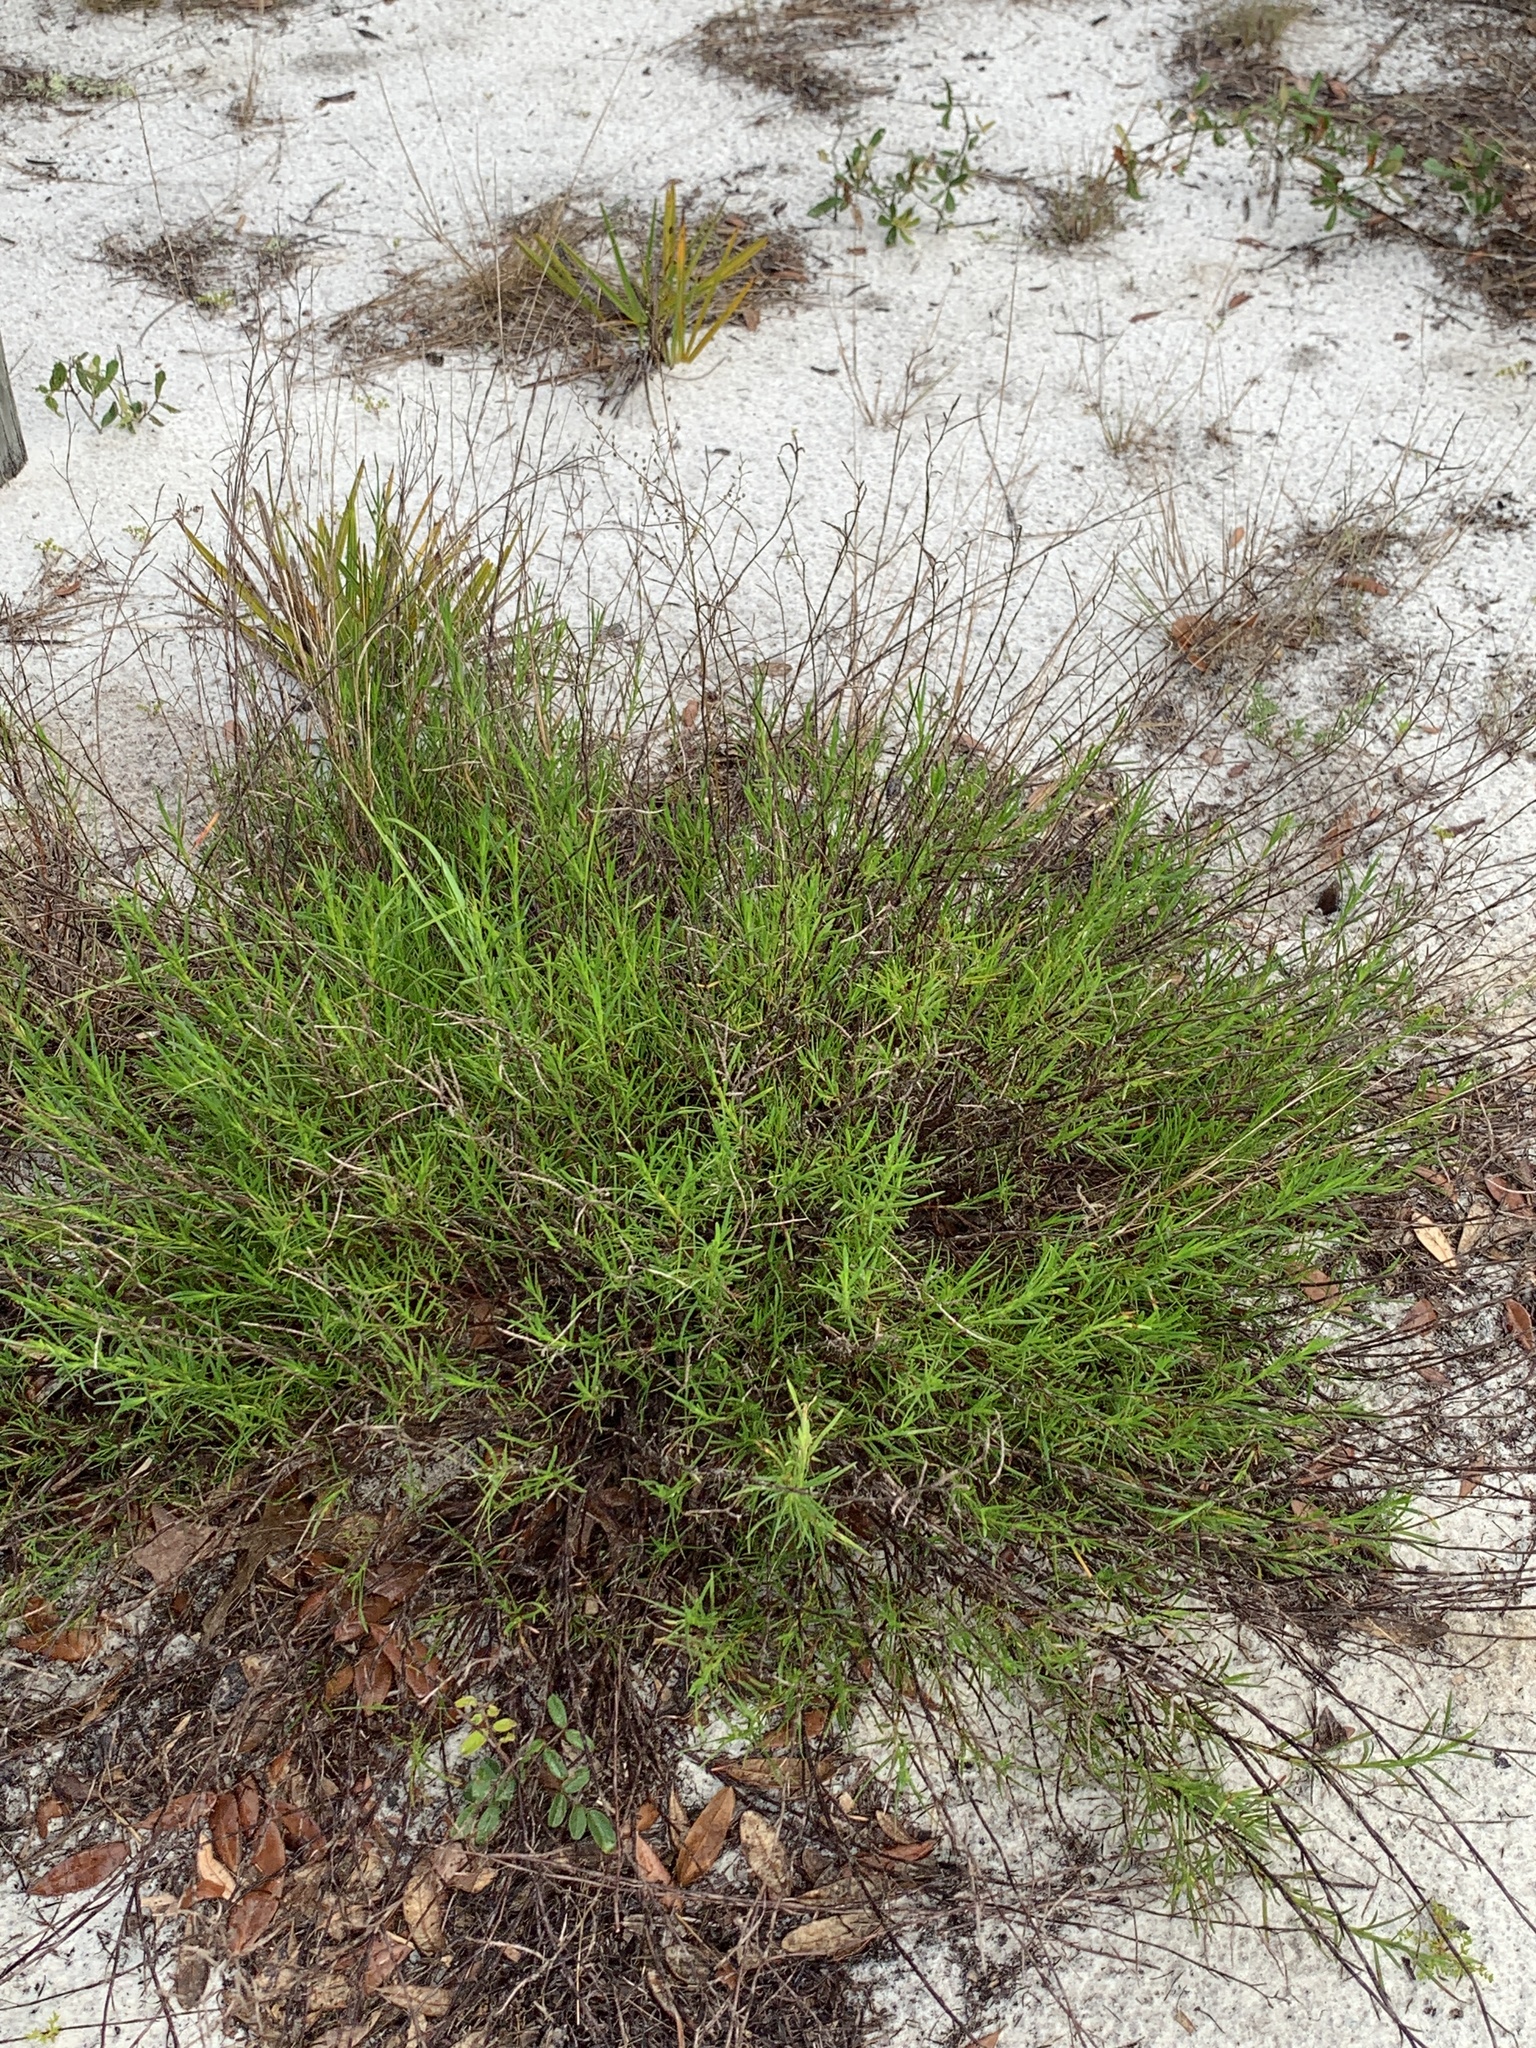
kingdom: Plantae
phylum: Tracheophyta
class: Magnoliopsida
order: Caryophyllales
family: Polygonaceae
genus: Polygonella
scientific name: Polygonella robusta
